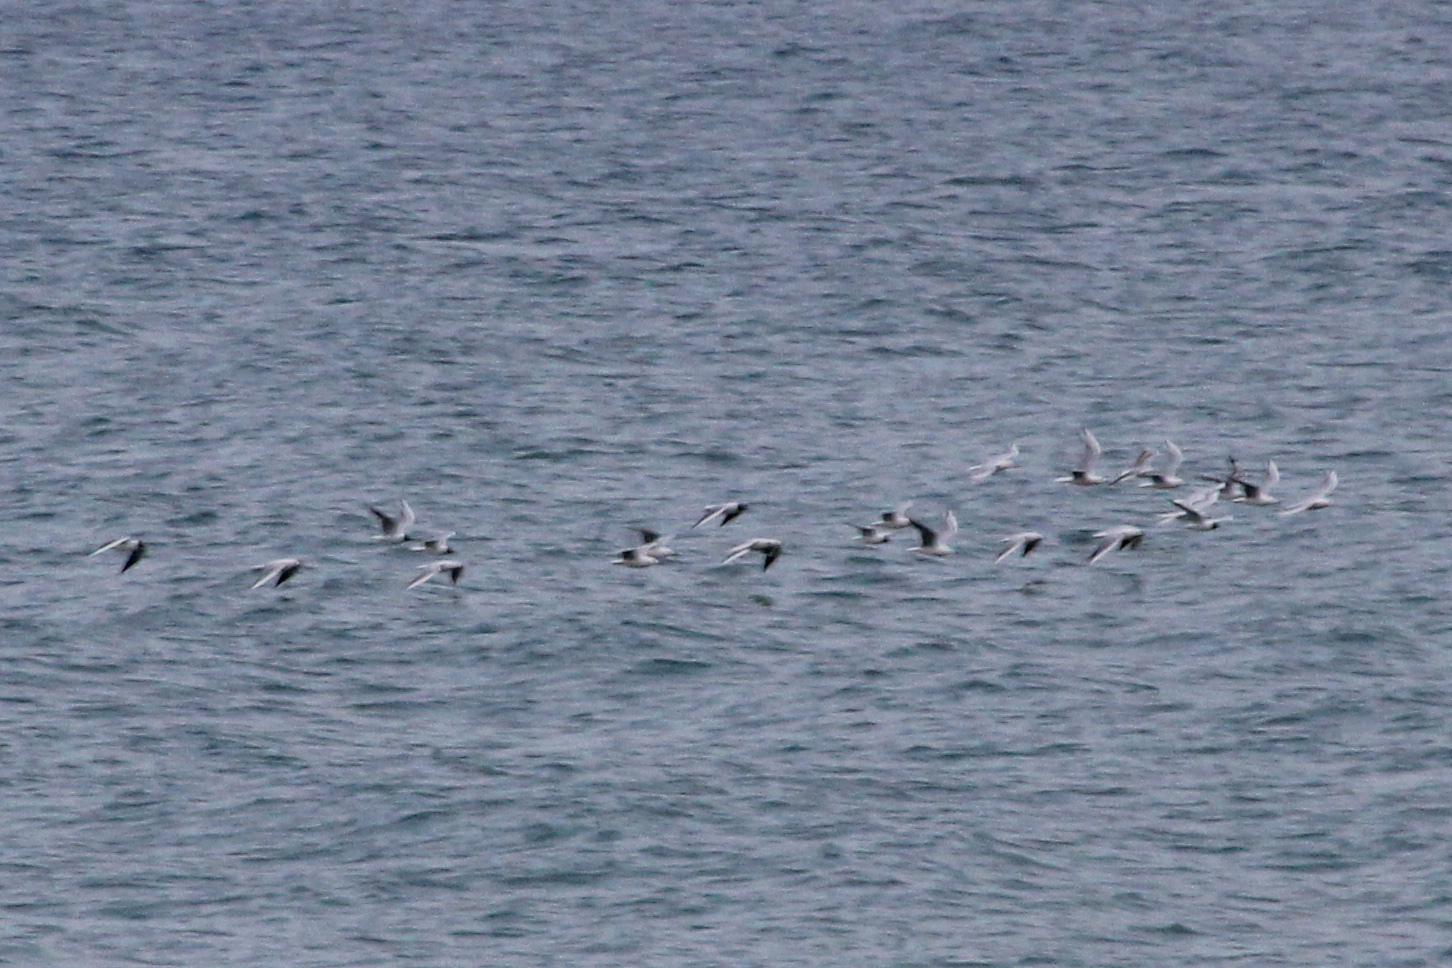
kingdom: Animalia
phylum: Chordata
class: Aves
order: Charadriiformes
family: Laridae
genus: Chroicocephalus
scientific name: Chroicocephalus ridibundus
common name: Black-headed gull
